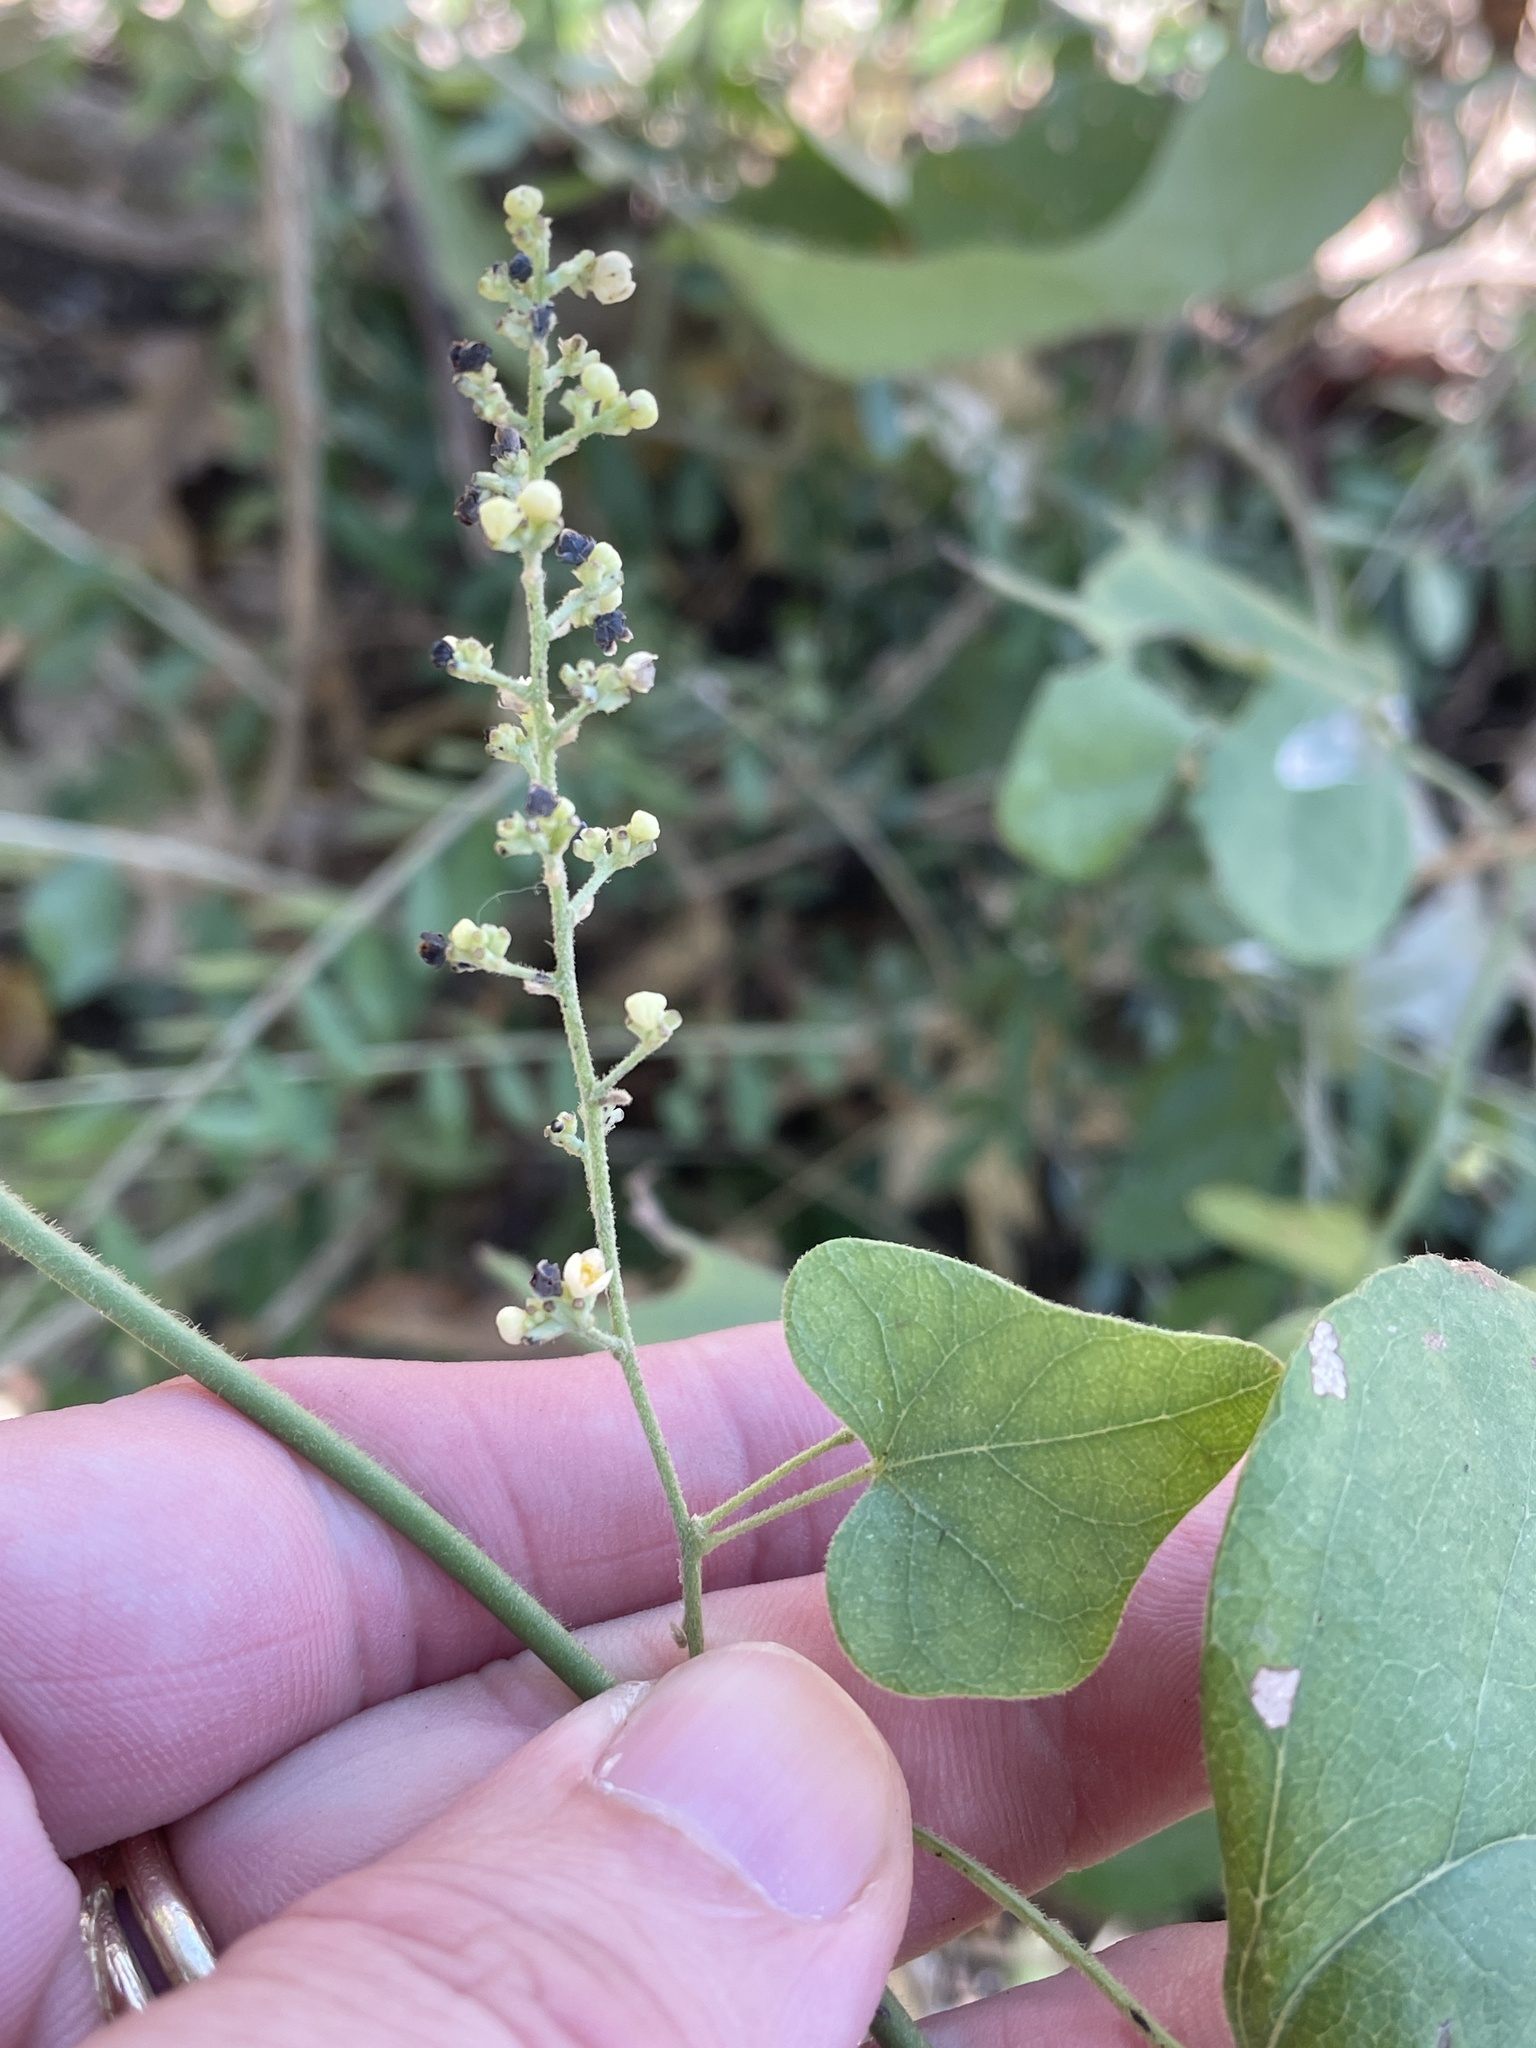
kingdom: Plantae
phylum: Tracheophyta
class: Magnoliopsida
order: Ranunculales
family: Menispermaceae
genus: Cocculus
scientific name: Cocculus carolinus
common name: Carolina moonseed
